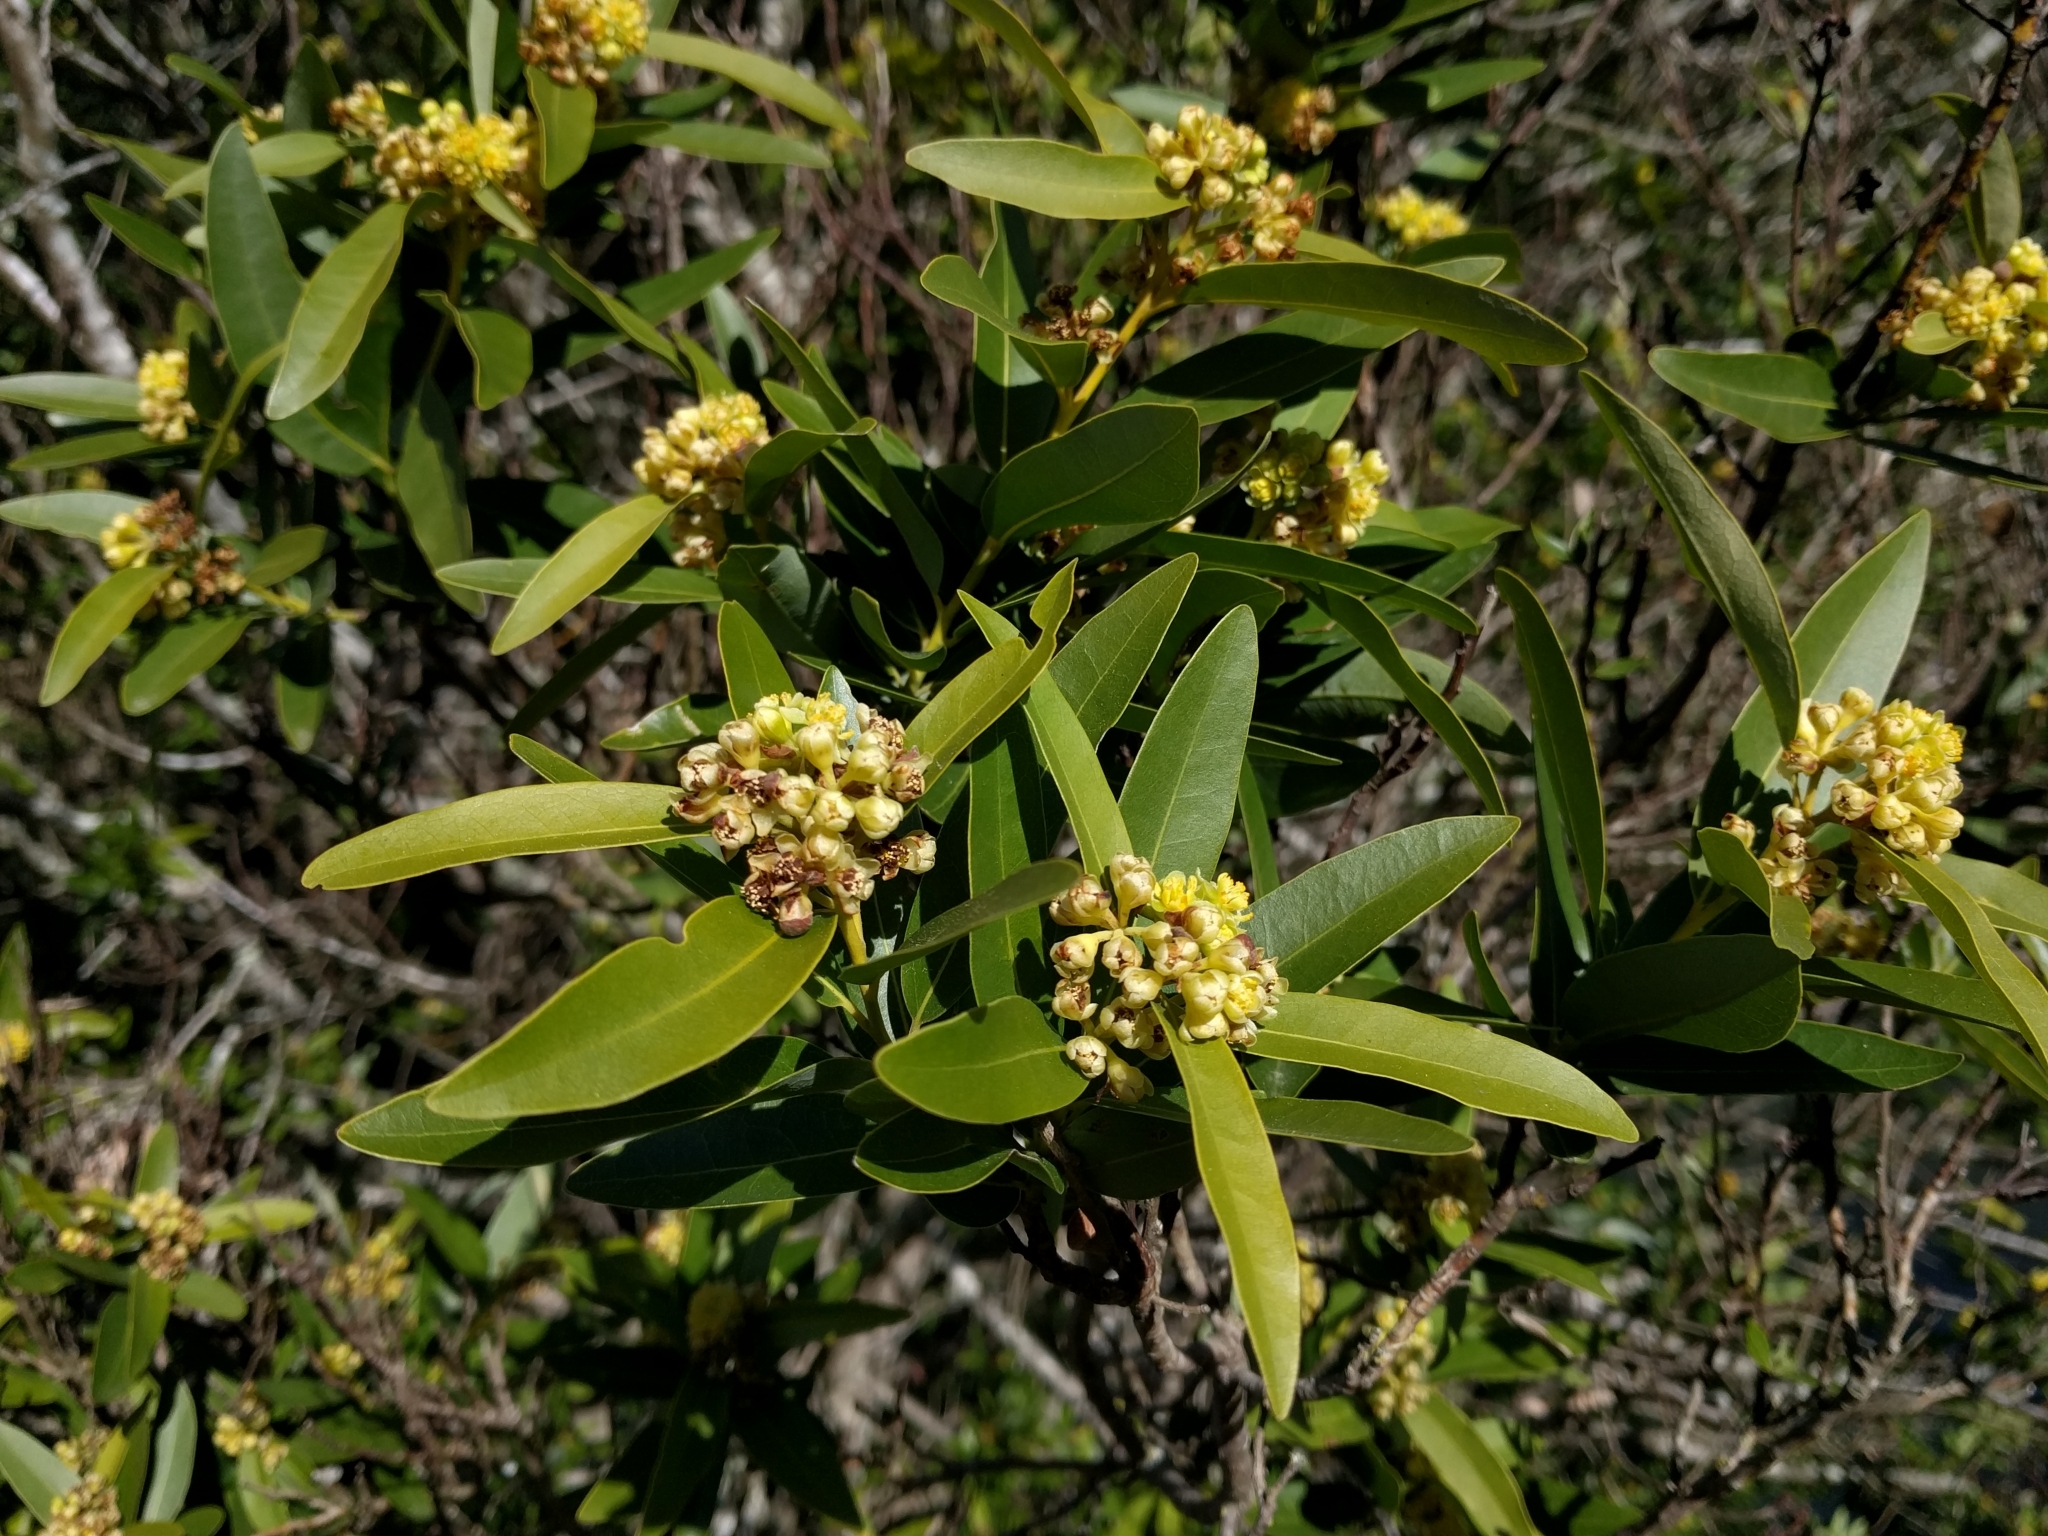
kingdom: Plantae
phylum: Tracheophyta
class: Magnoliopsida
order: Laurales
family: Lauraceae
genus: Umbellularia
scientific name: Umbellularia californica
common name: California bay
